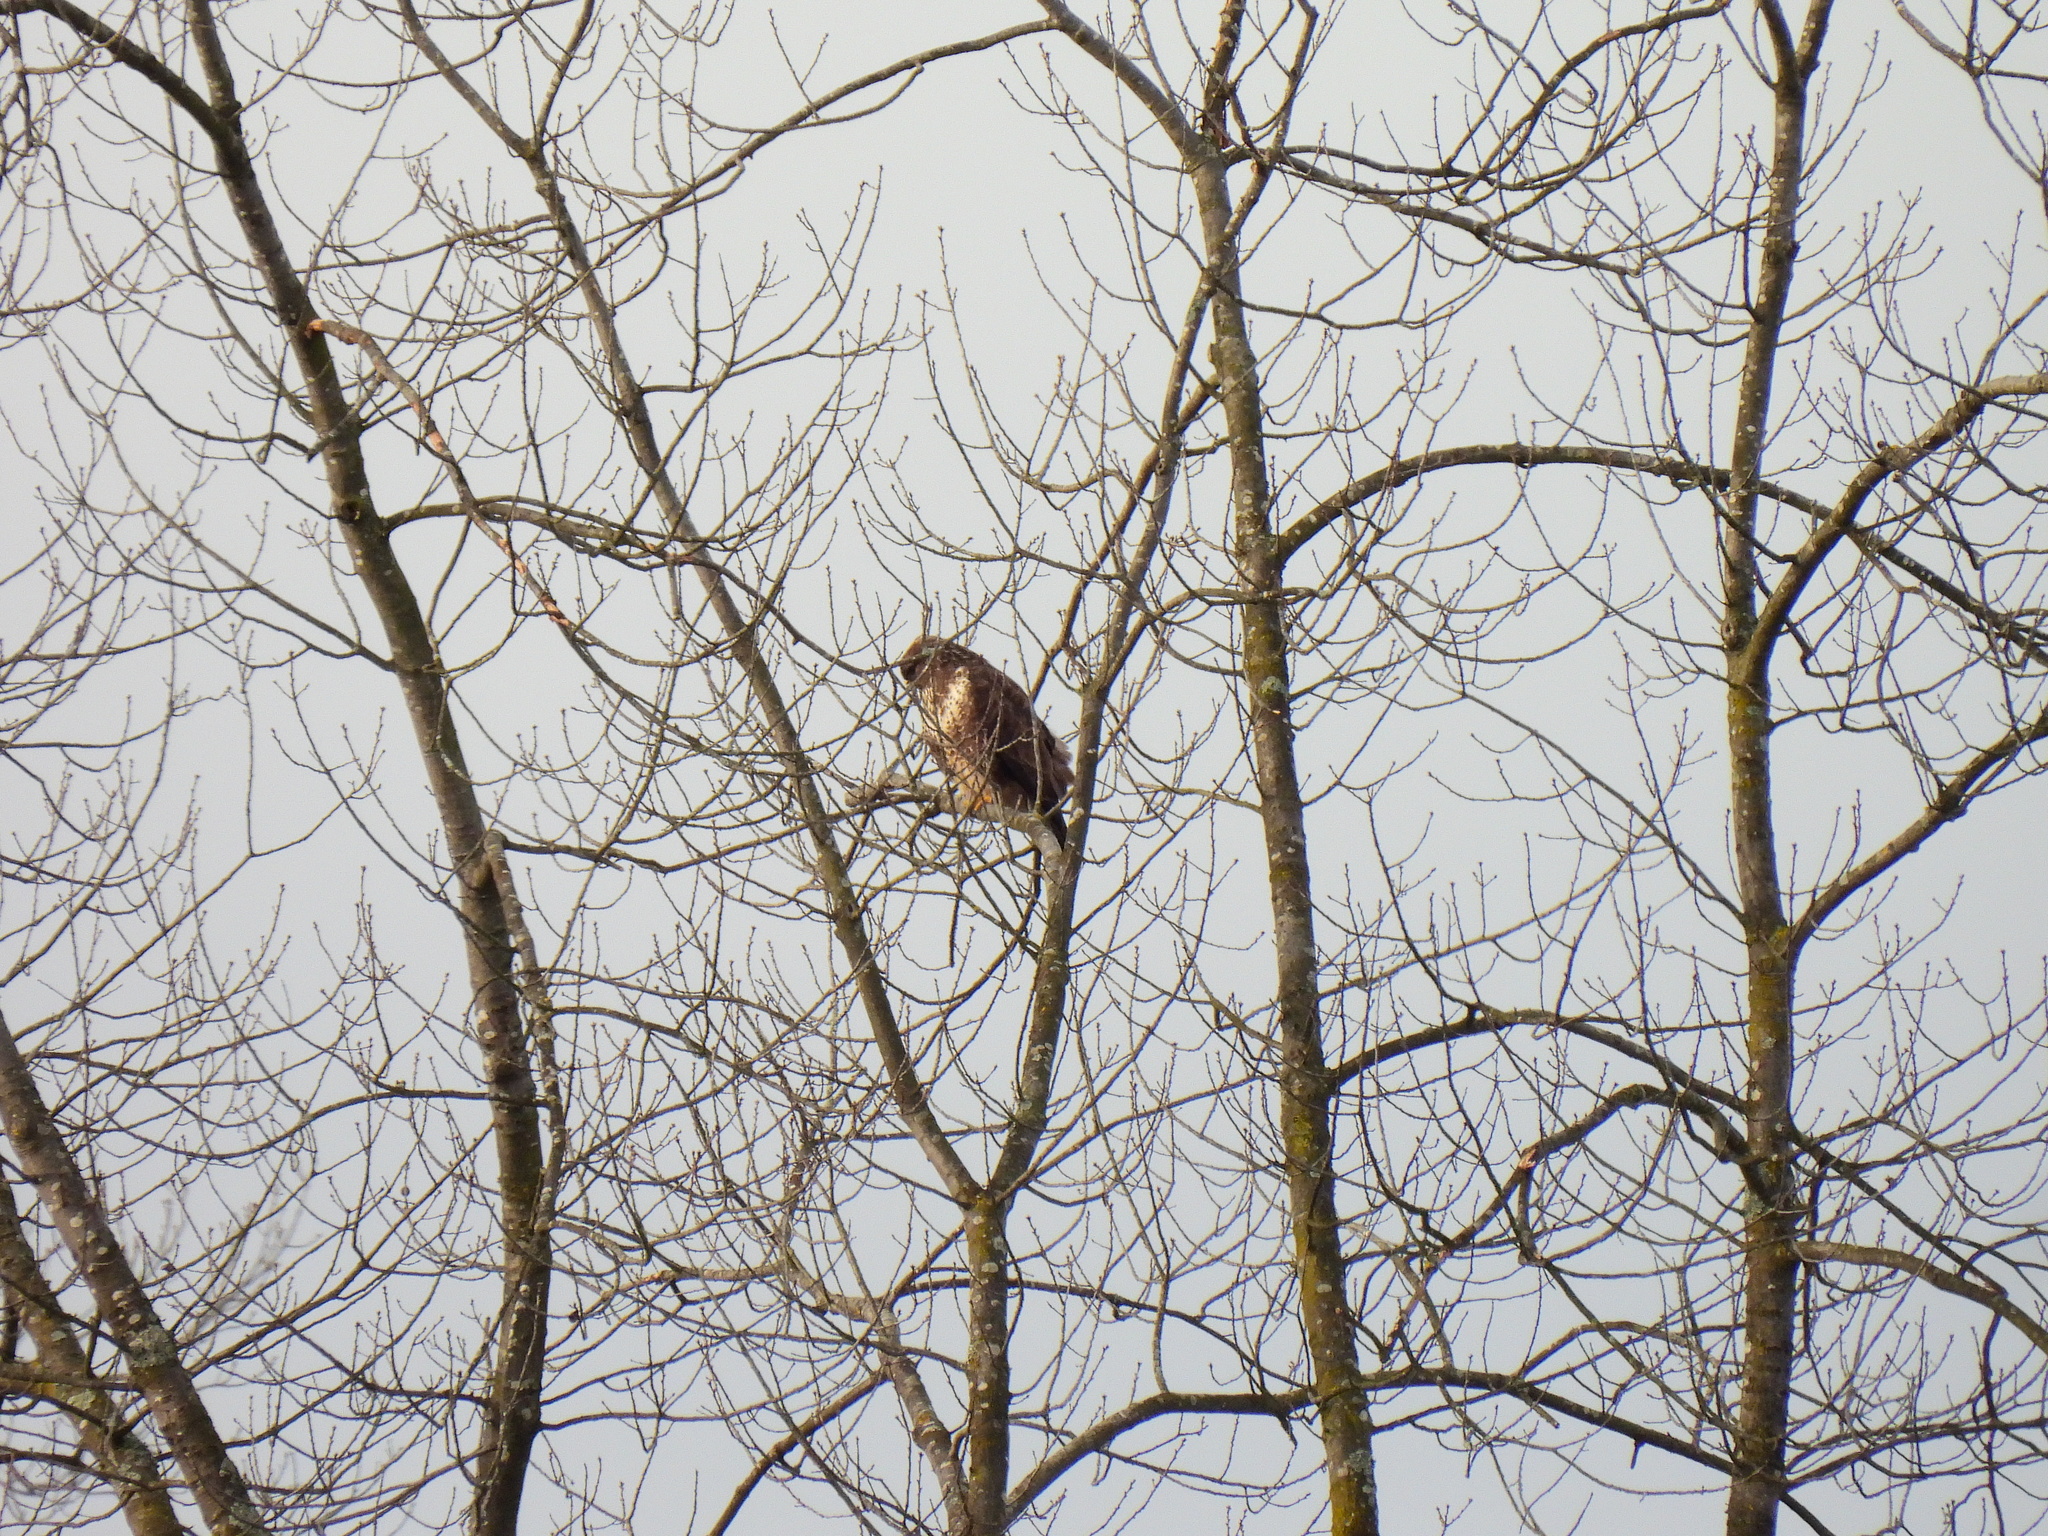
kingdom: Animalia
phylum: Chordata
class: Aves
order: Accipitriformes
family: Accipitridae
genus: Buteo
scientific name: Buteo buteo
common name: Common buzzard
